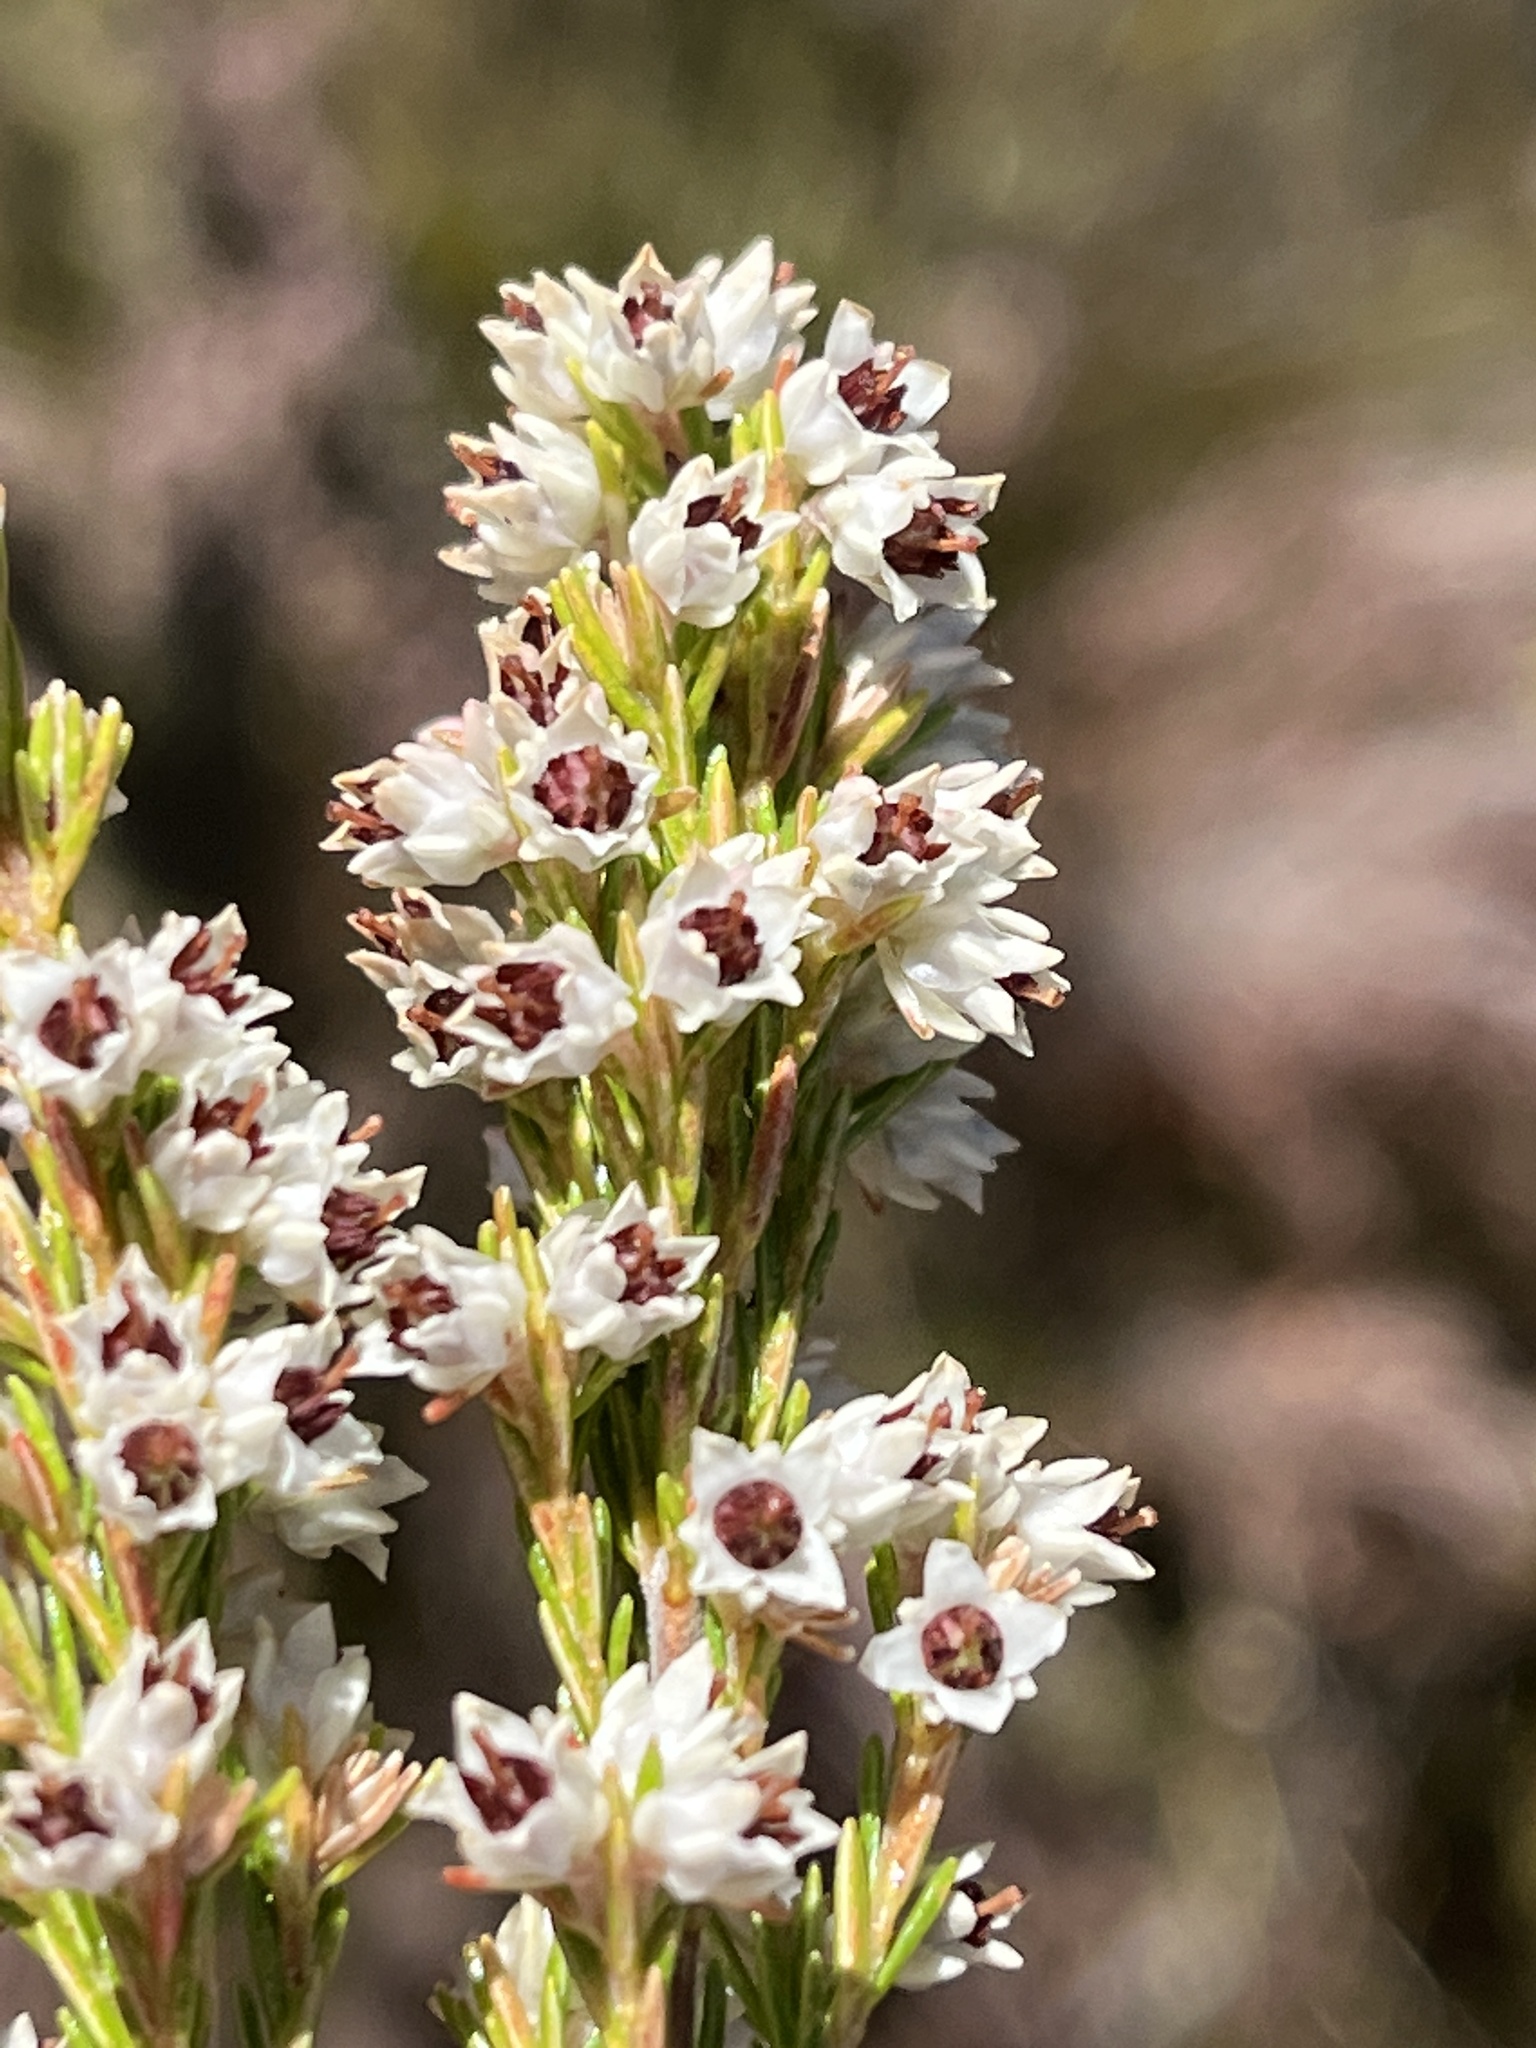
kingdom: Plantae
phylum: Tracheophyta
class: Magnoliopsida
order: Ericales
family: Ericaceae
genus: Erica
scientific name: Erica calycina
